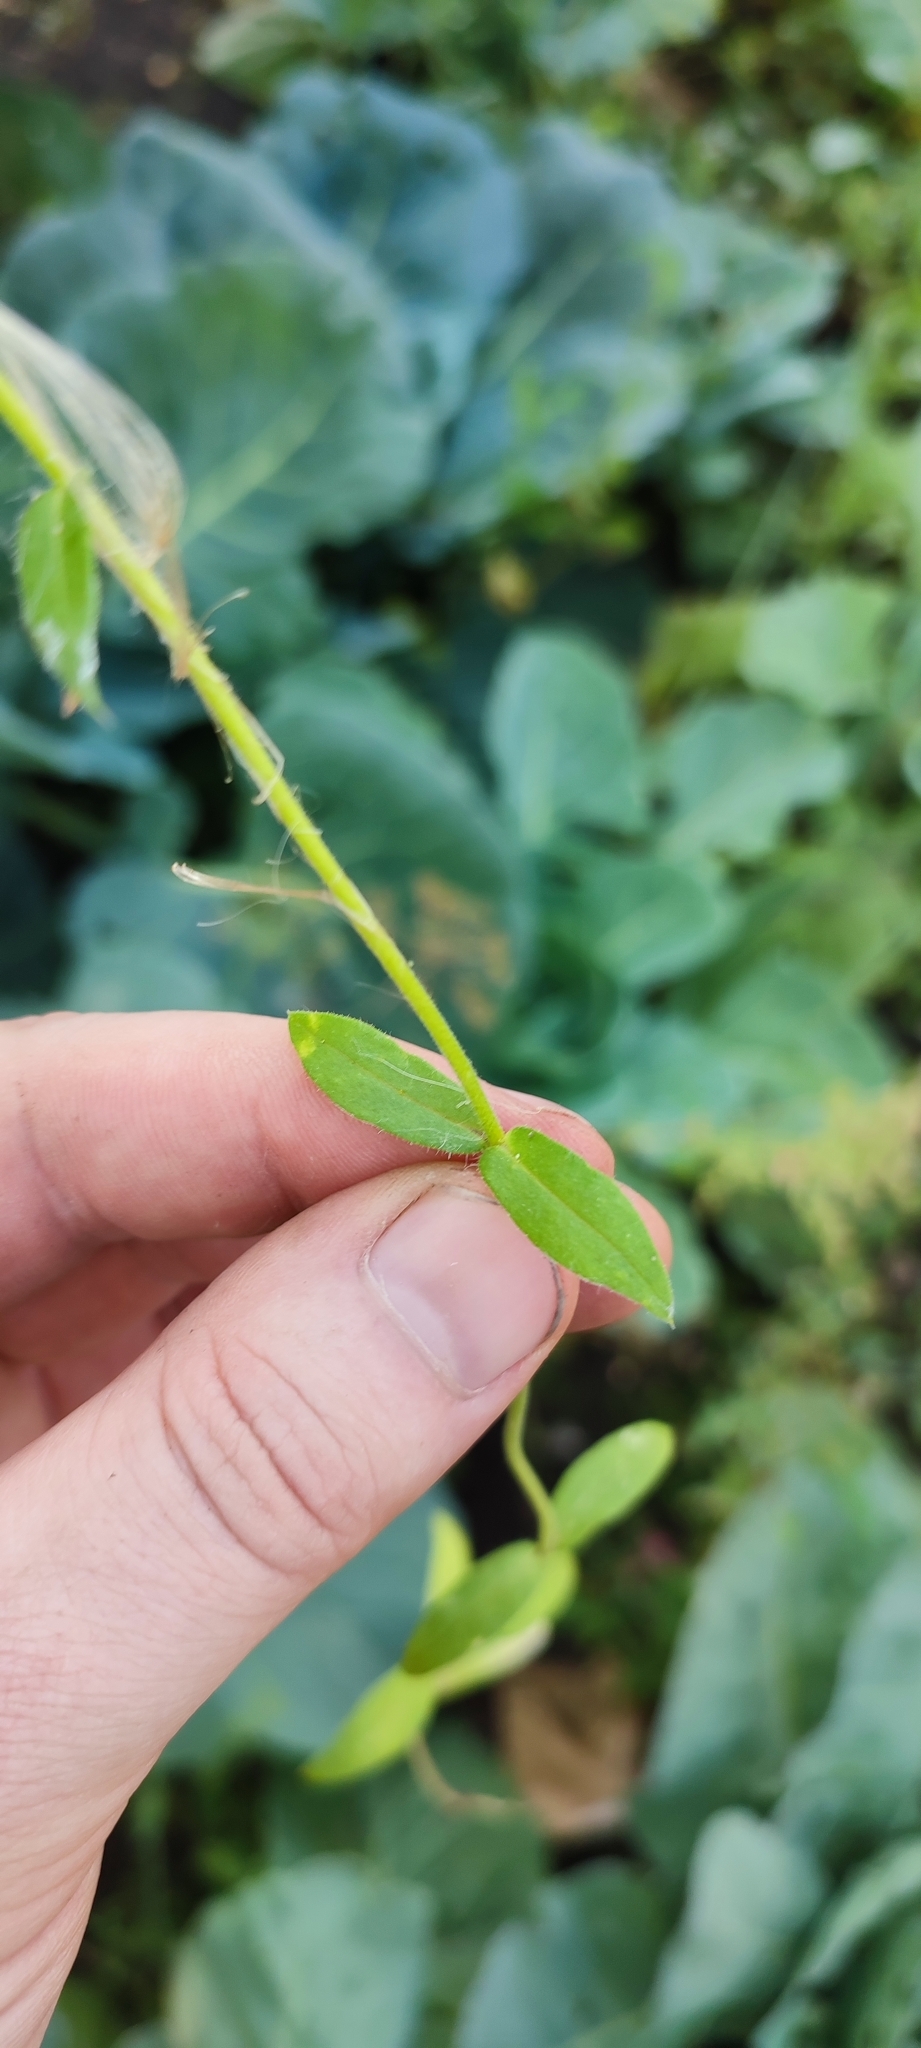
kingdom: Plantae
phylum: Tracheophyta
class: Magnoliopsida
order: Ericales
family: Polemoniaceae
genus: Phlox
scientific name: Phlox drummondii
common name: Drummond's phlox
